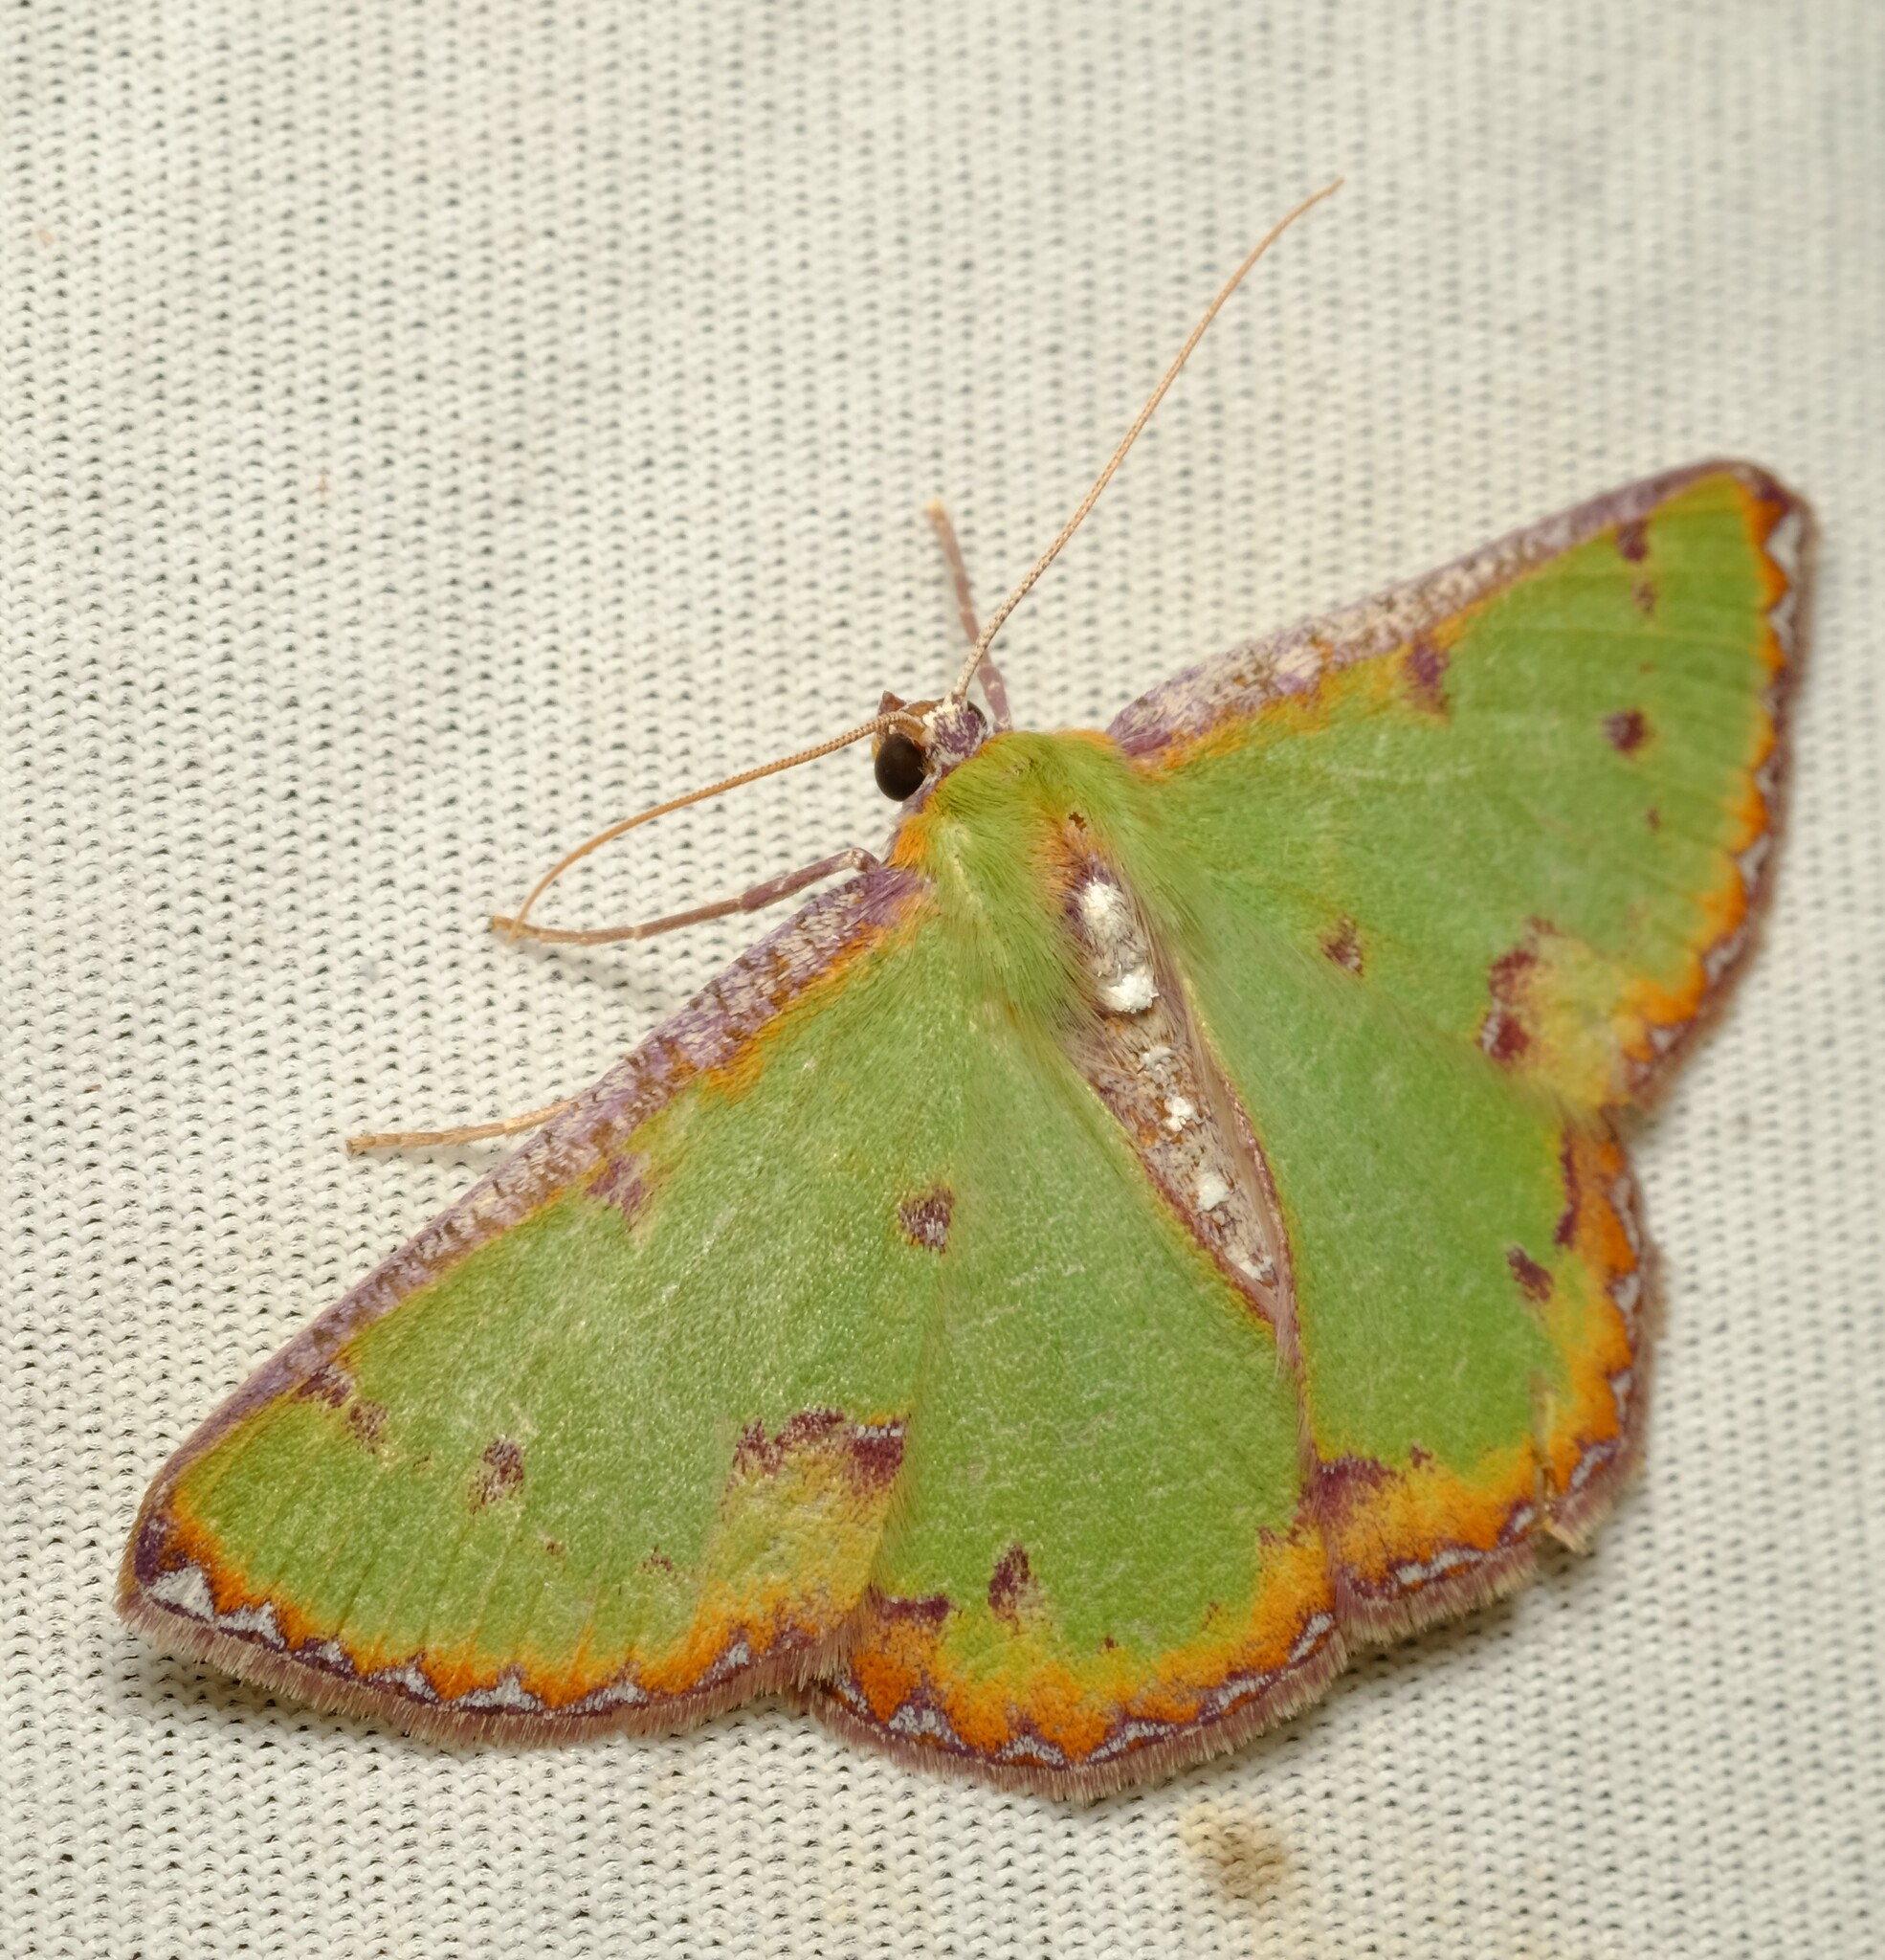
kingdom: Animalia
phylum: Arthropoda
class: Insecta
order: Lepidoptera
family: Geometridae
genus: Eucyclodes
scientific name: Eucyclodes buprestaria
